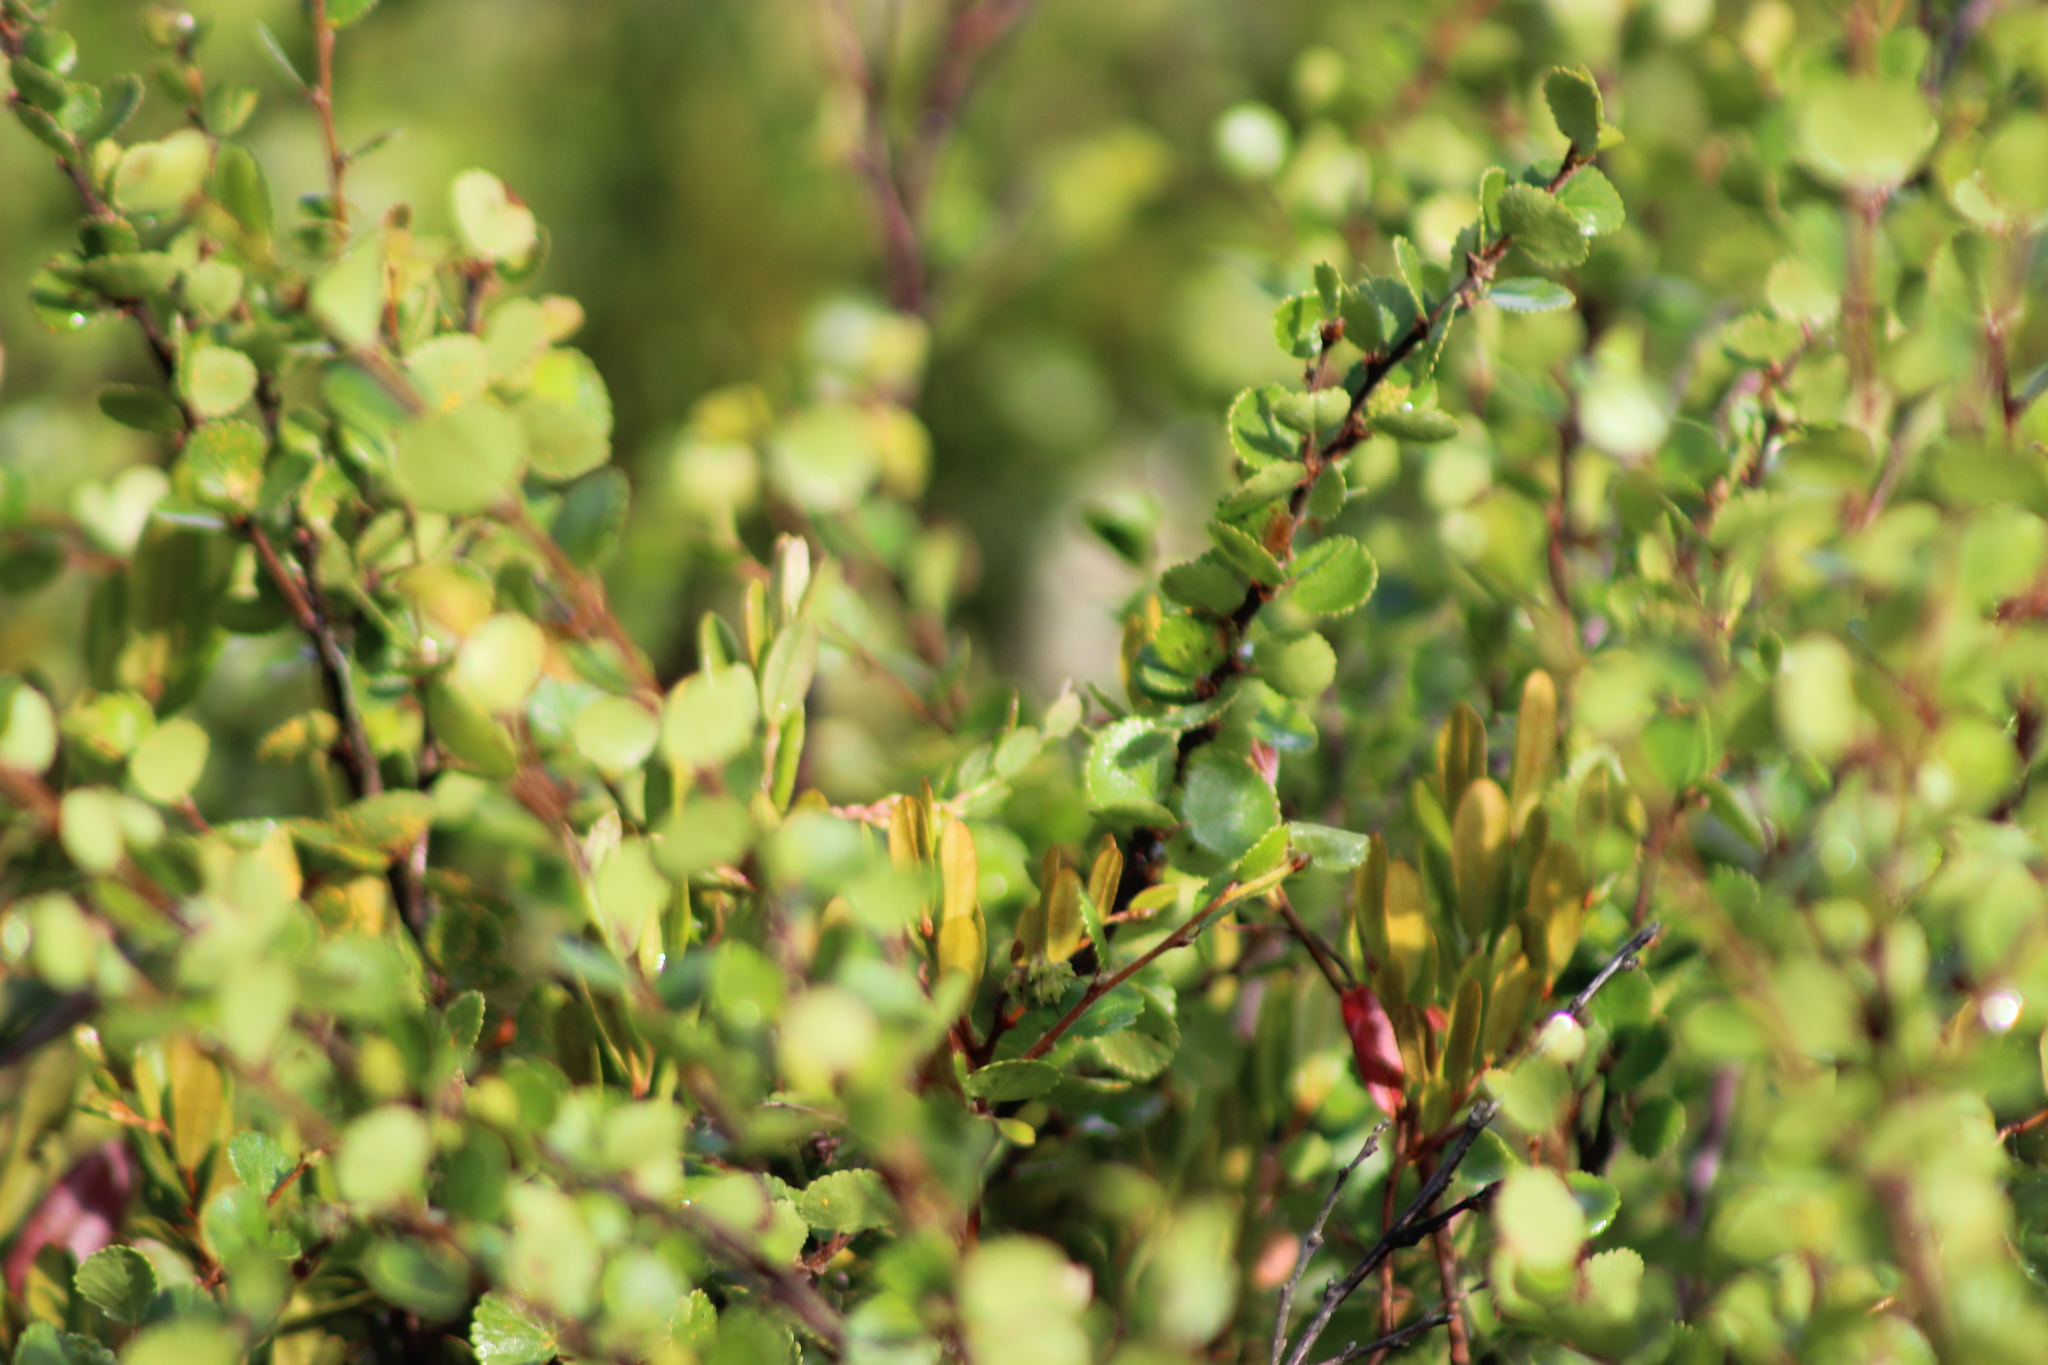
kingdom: Plantae
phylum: Tracheophyta
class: Magnoliopsida
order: Fagales
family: Betulaceae
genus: Betula
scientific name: Betula nana
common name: Arctic dwarf birch
